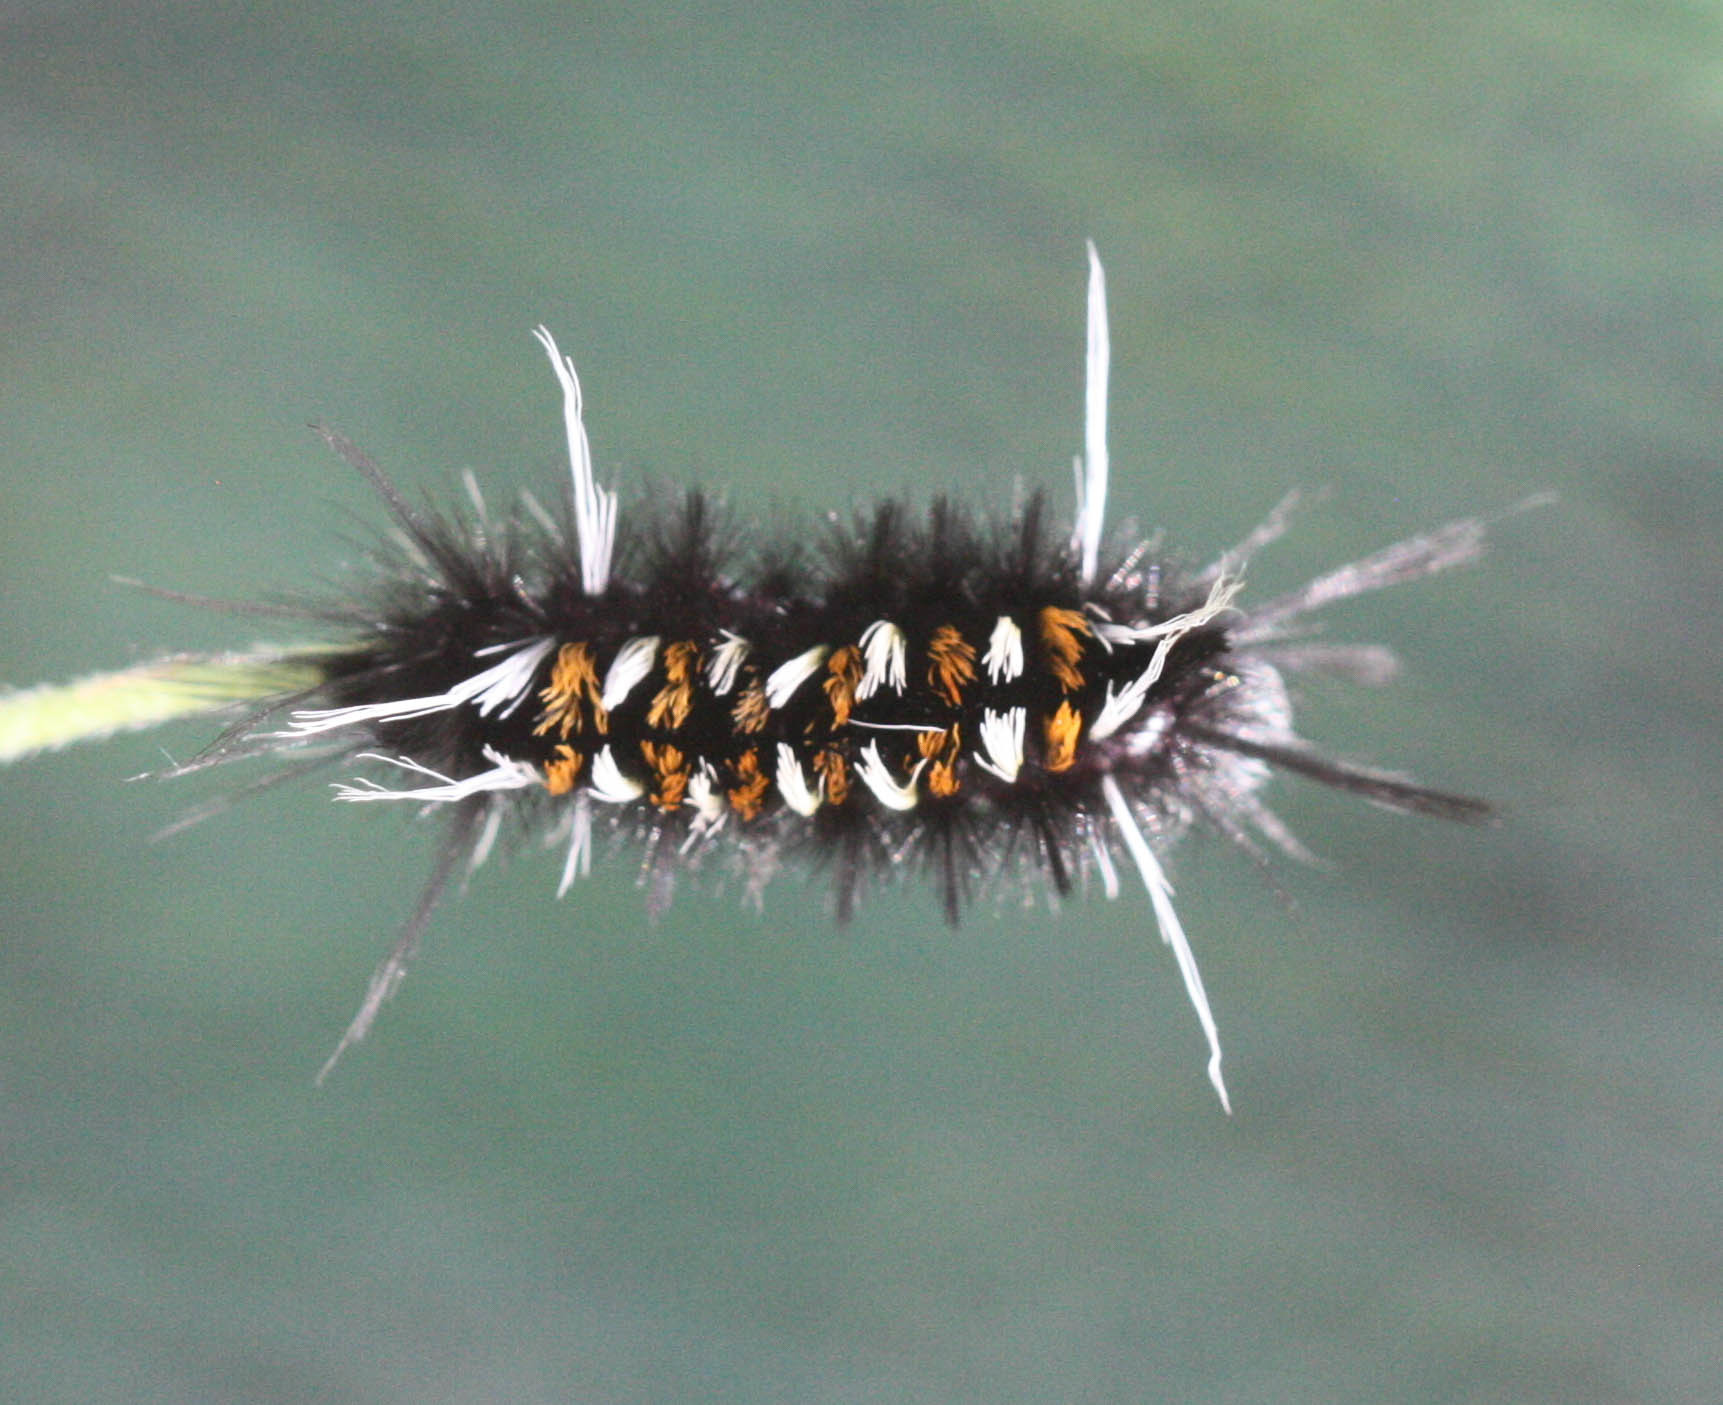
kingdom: Animalia
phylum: Arthropoda
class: Insecta
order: Lepidoptera
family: Erebidae
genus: Euchaetes
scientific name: Euchaetes
